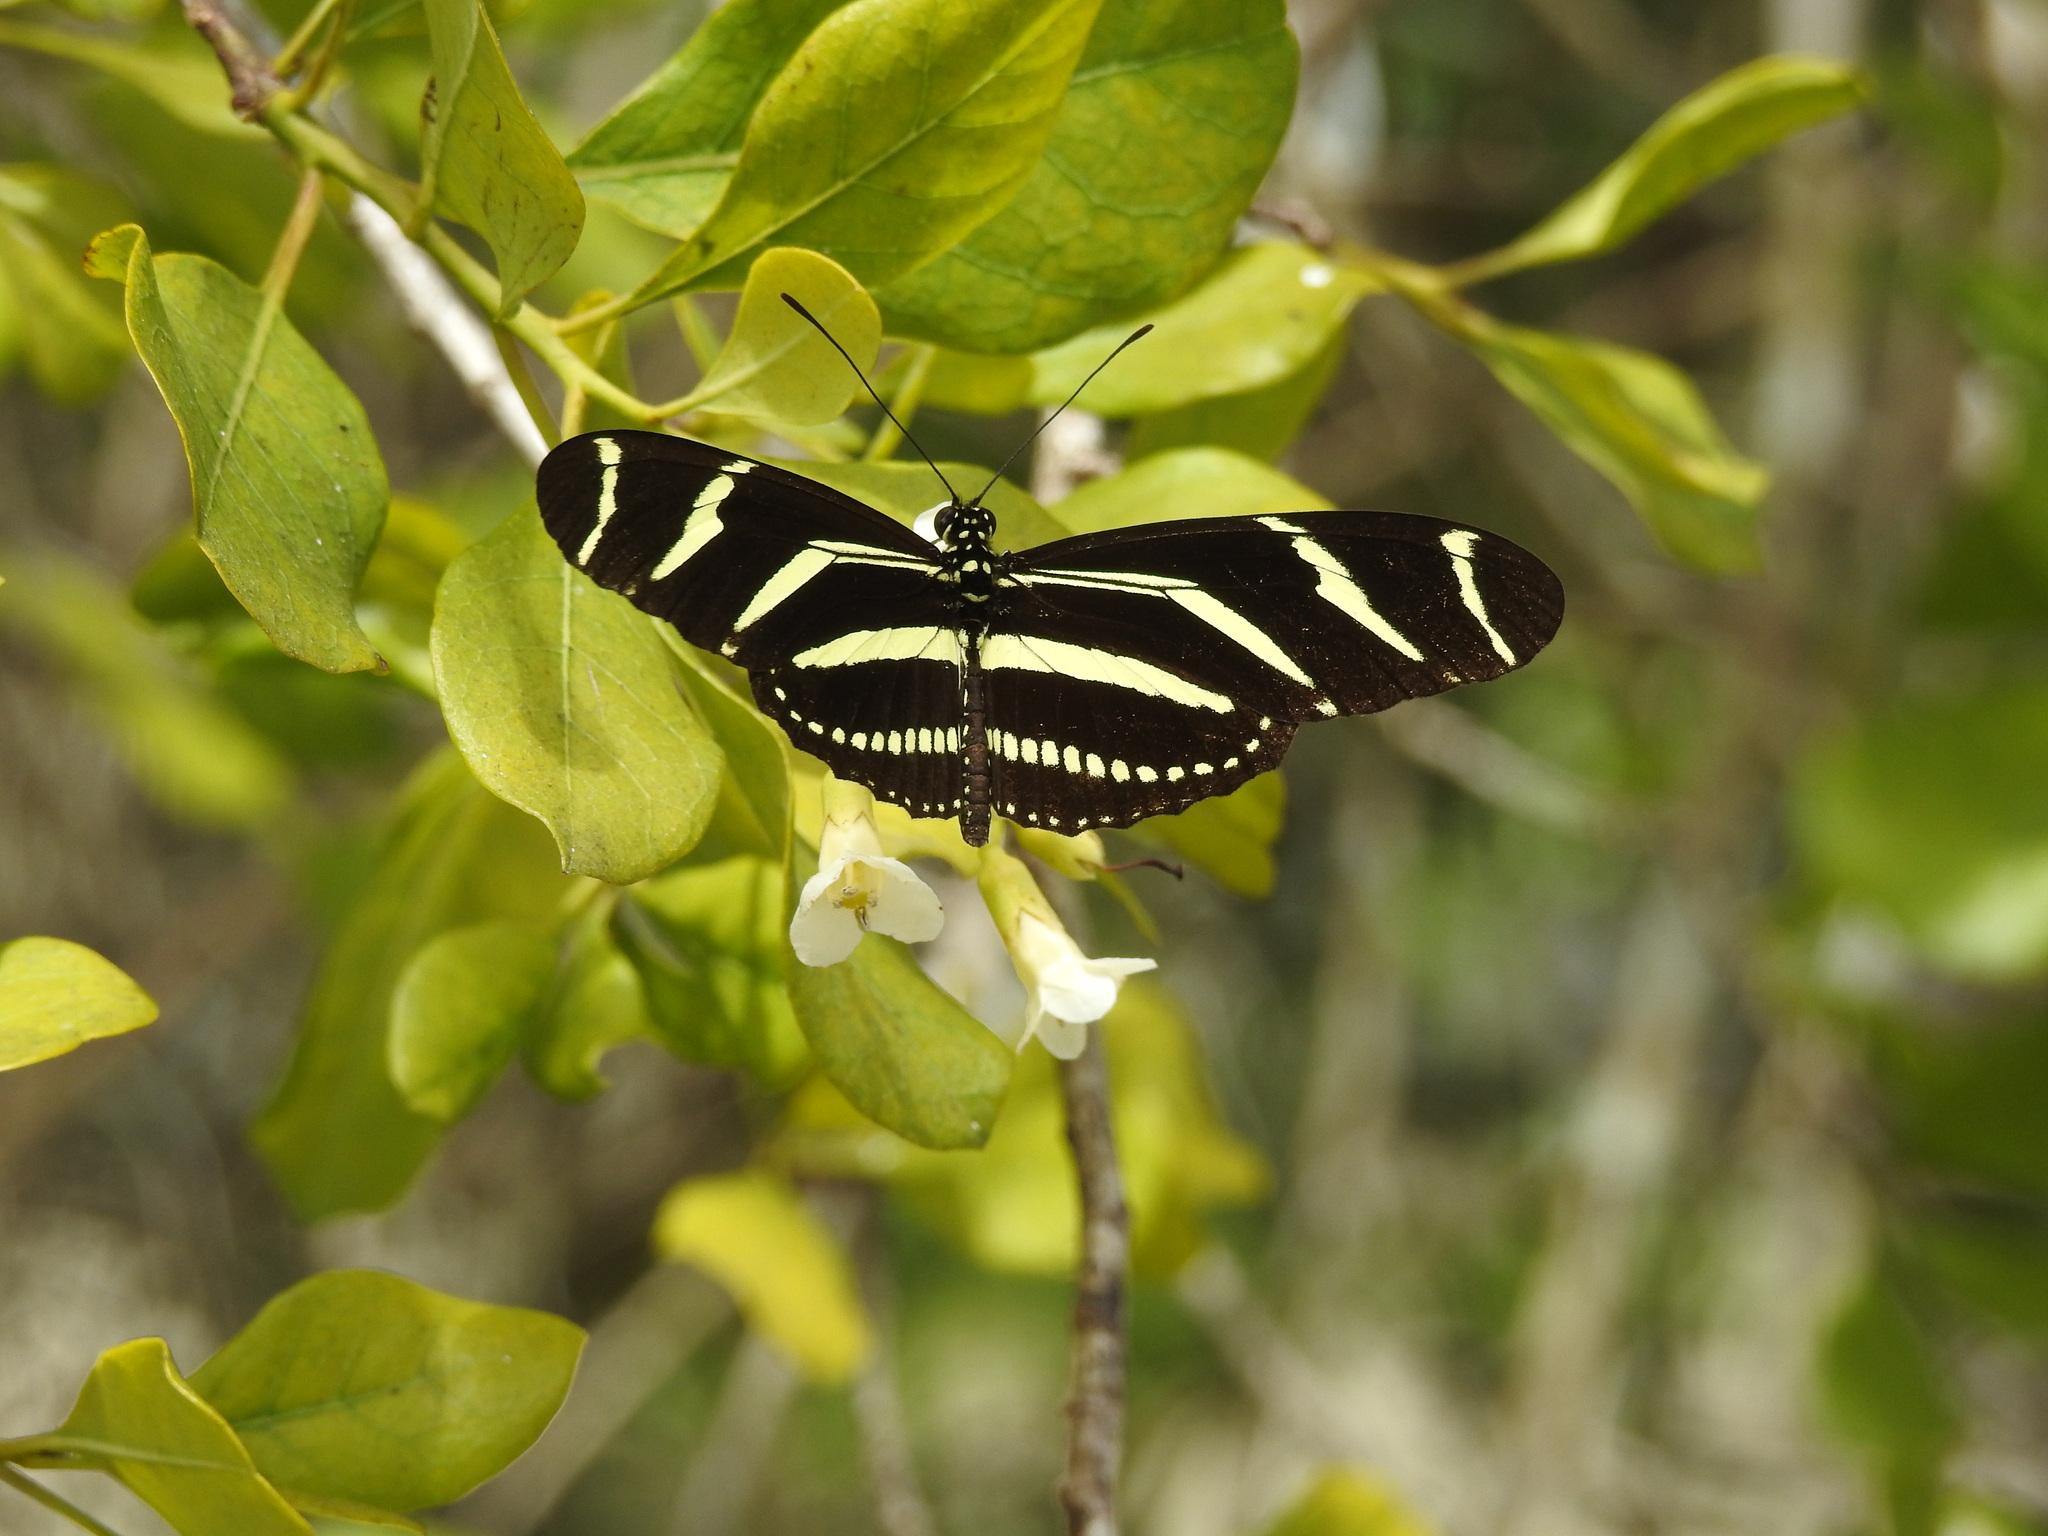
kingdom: Animalia
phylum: Arthropoda
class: Insecta
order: Lepidoptera
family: Nymphalidae
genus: Heliconius
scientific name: Heliconius charithonia
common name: Zebra long wing
